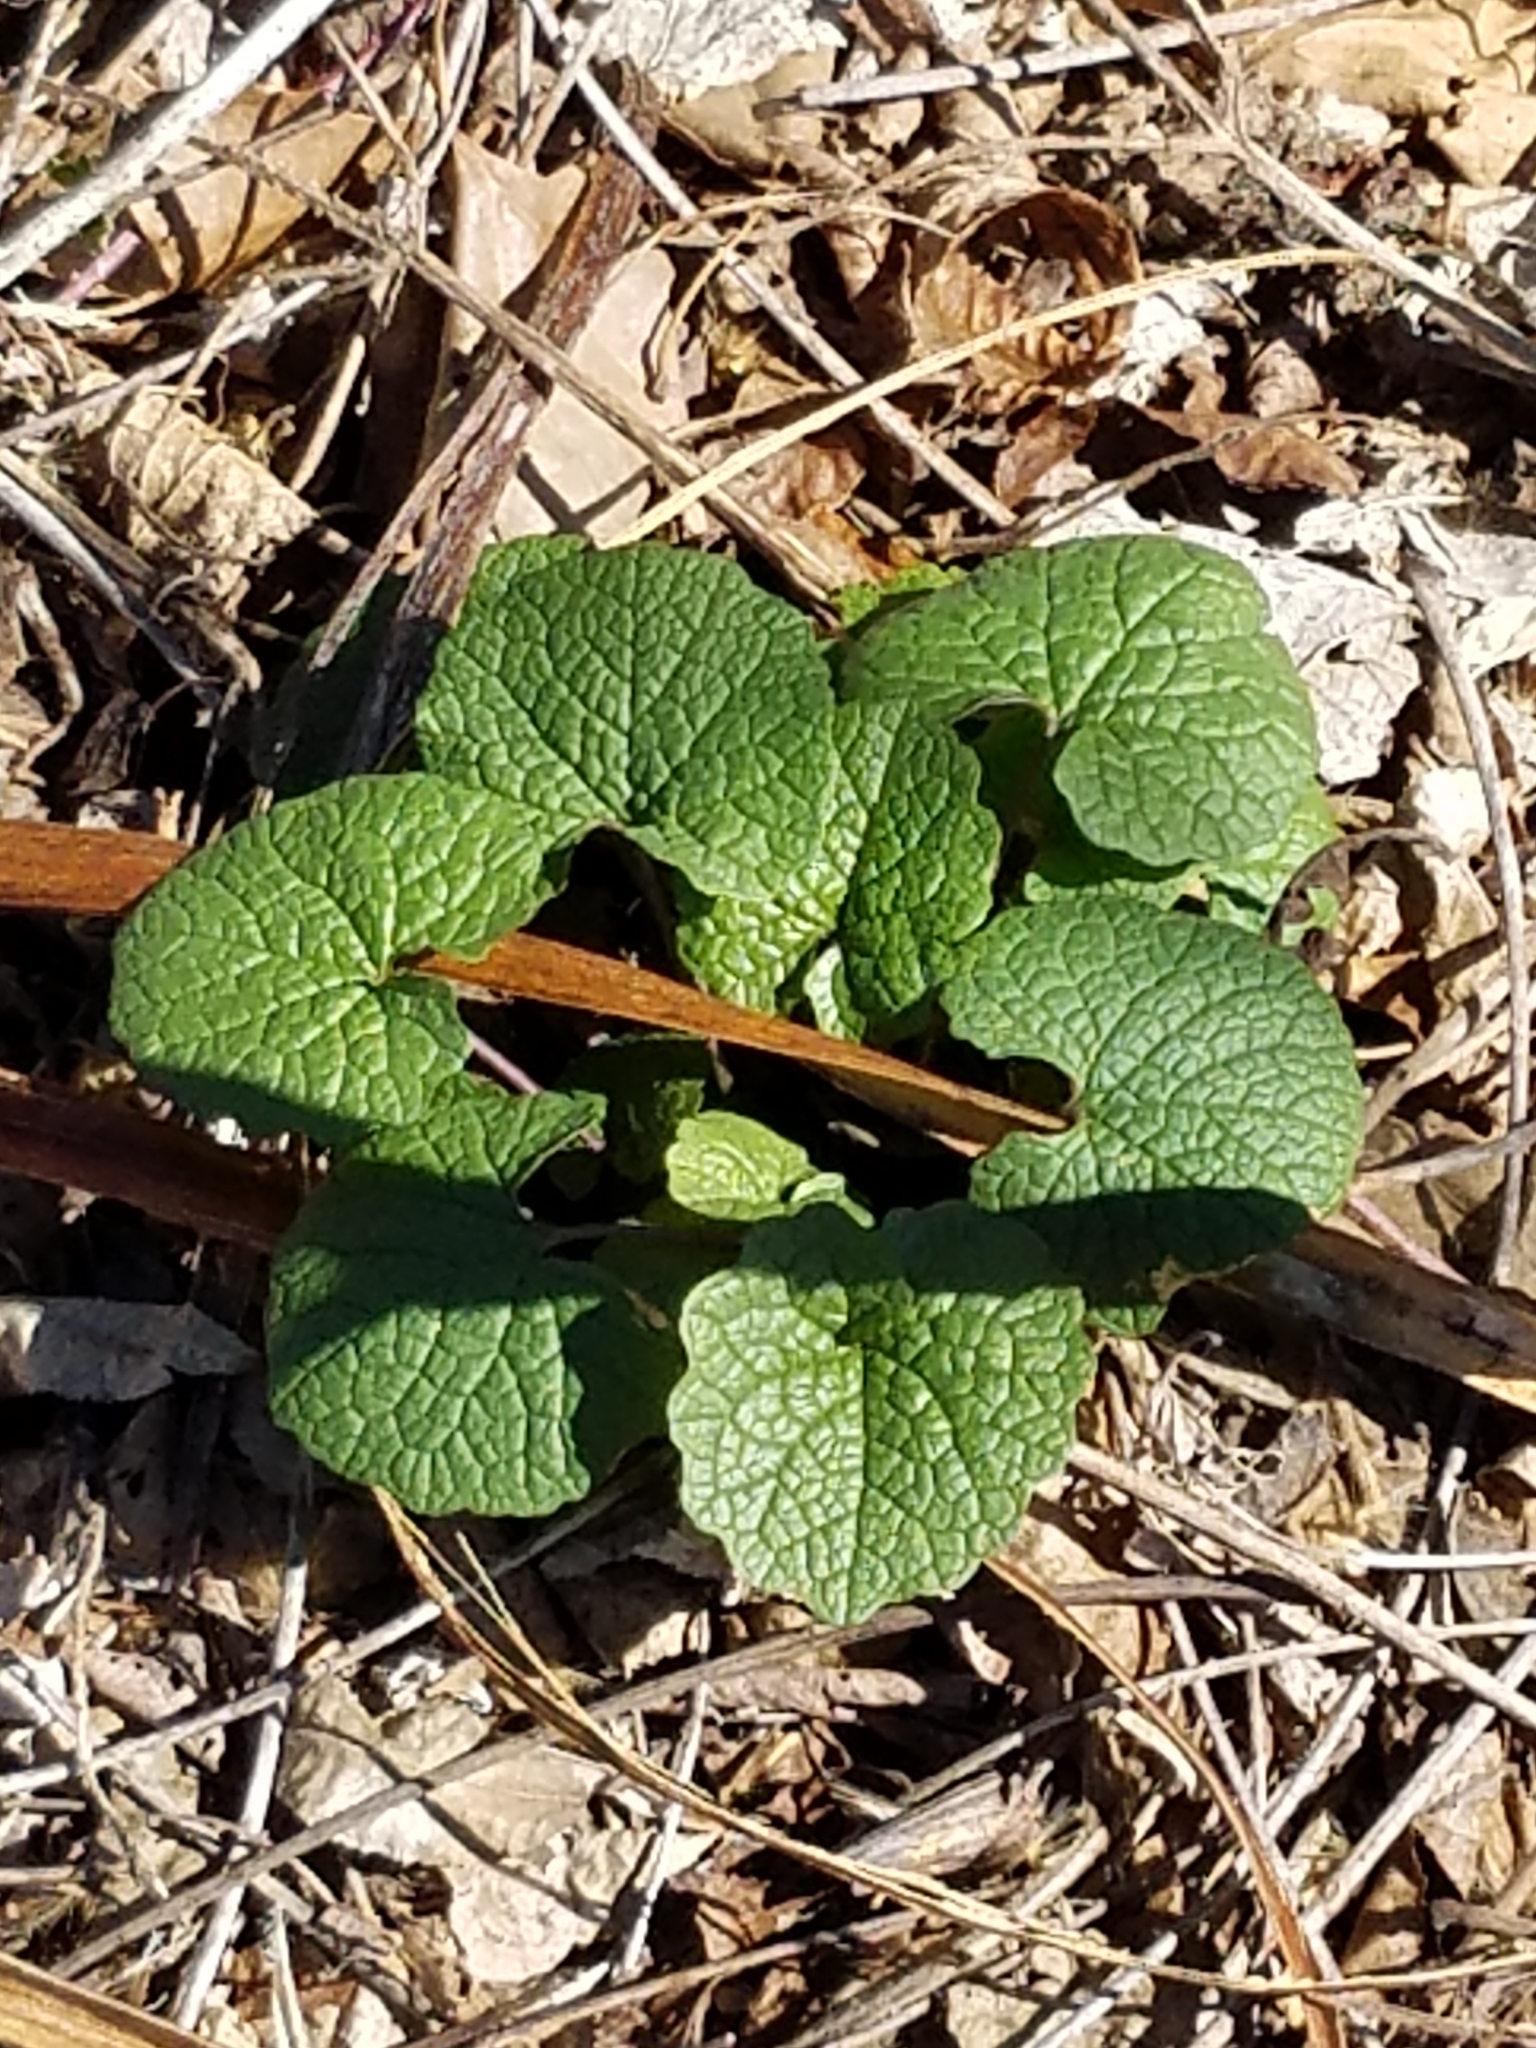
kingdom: Plantae
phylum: Tracheophyta
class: Magnoliopsida
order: Brassicales
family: Brassicaceae
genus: Alliaria
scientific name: Alliaria petiolata
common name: Garlic mustard
